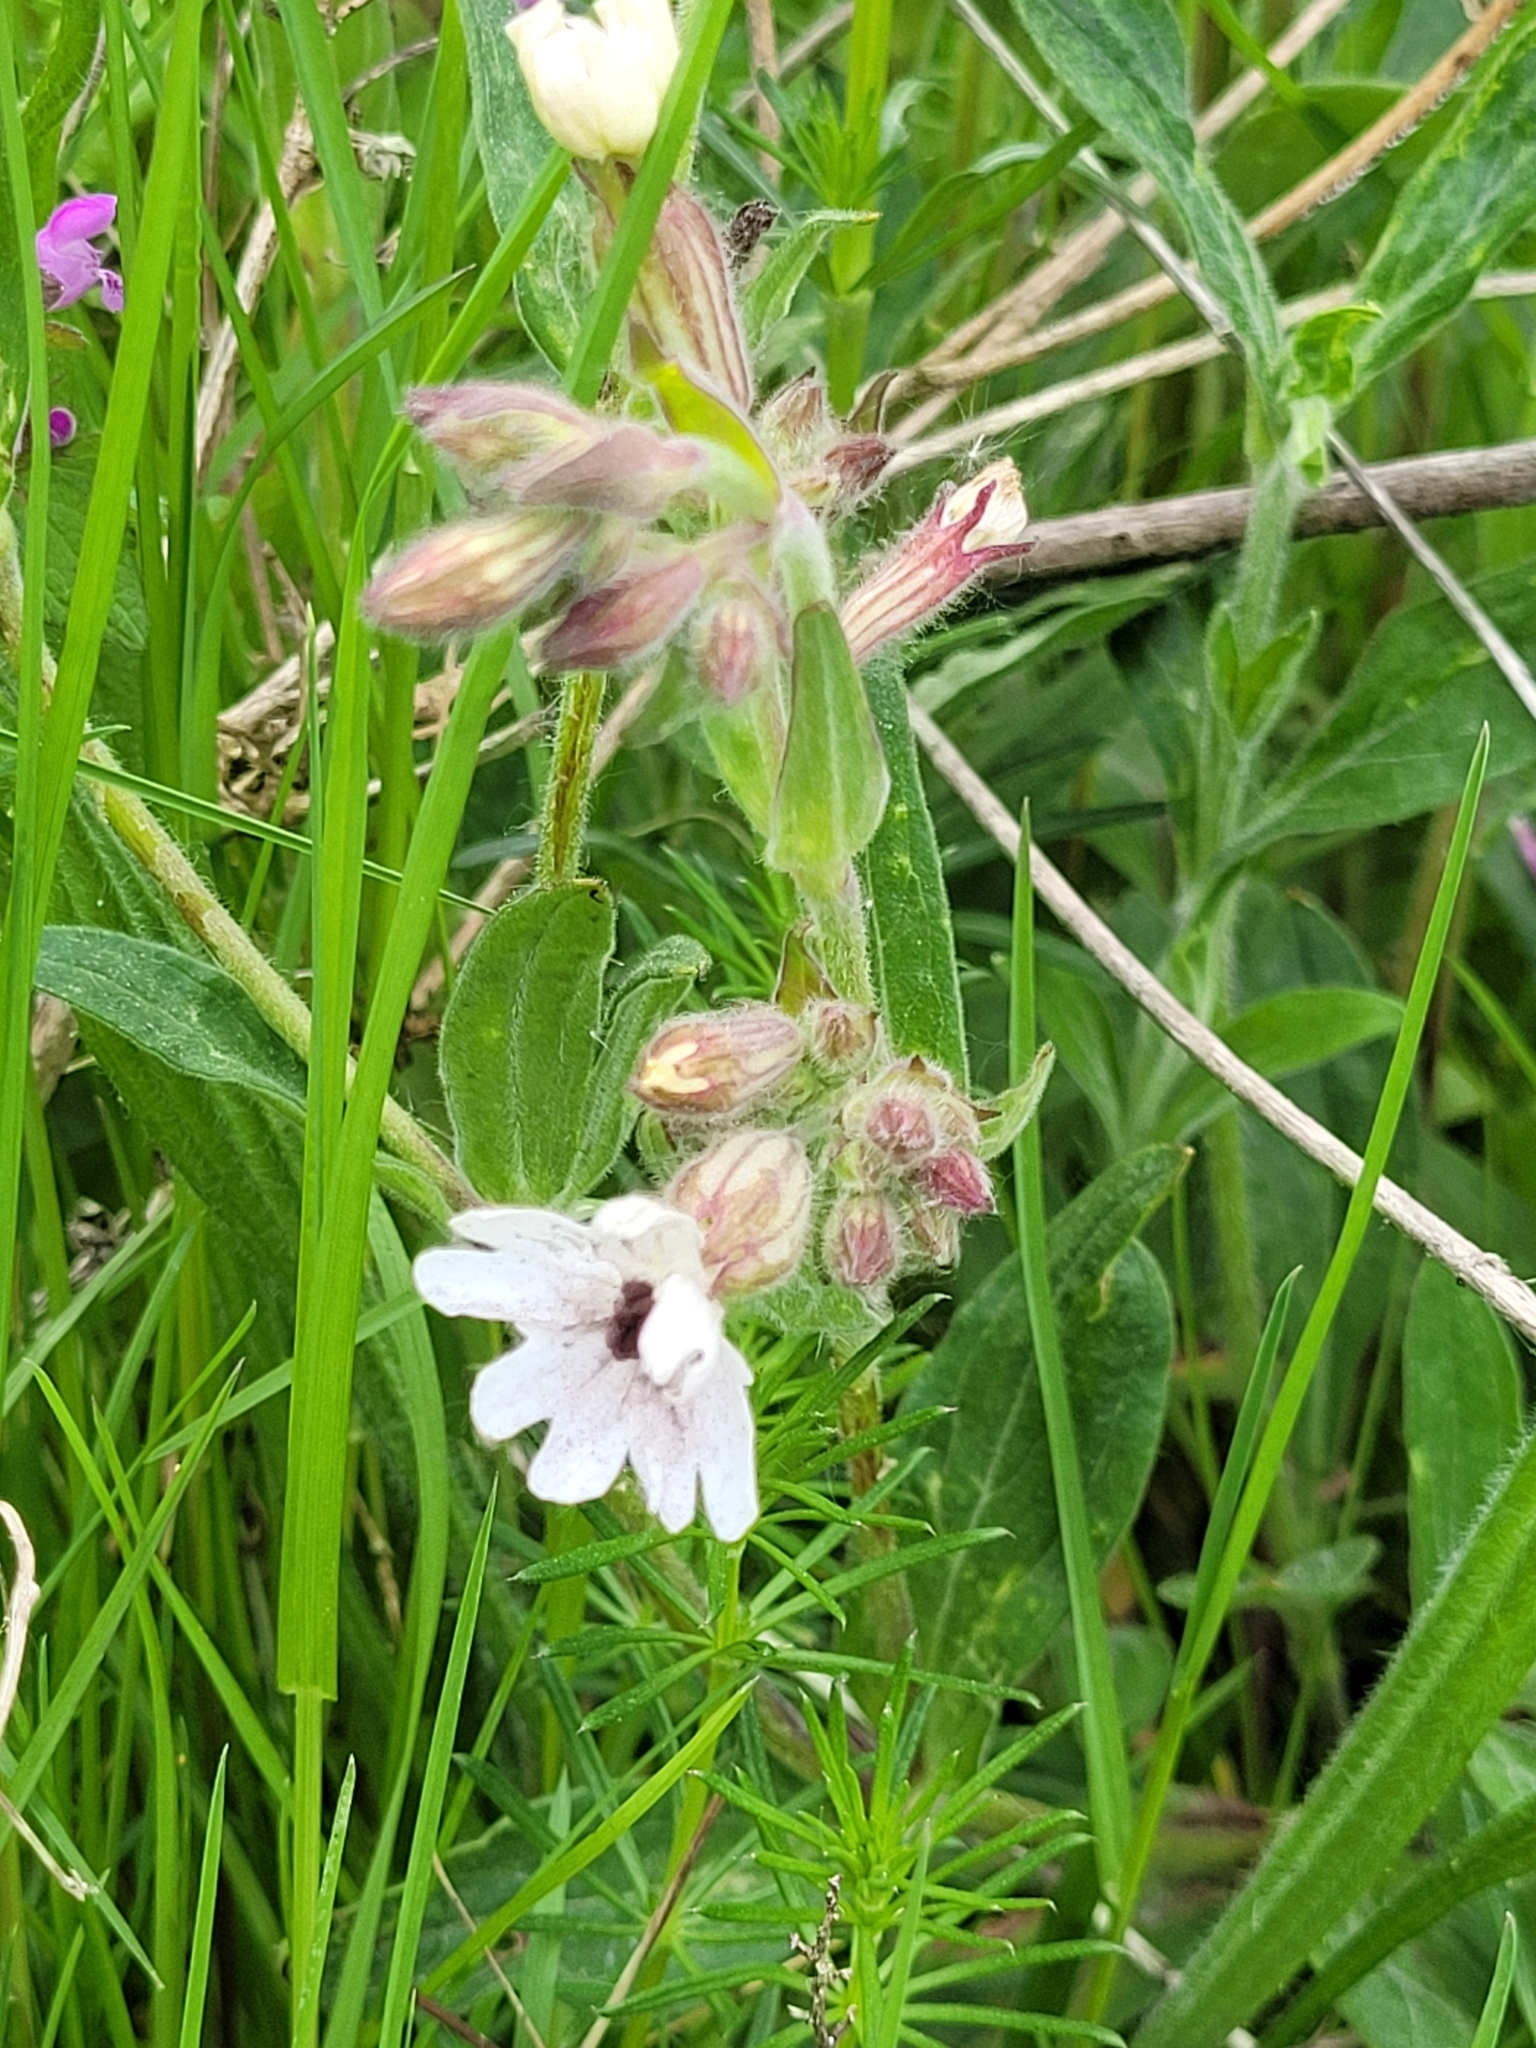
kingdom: Plantae
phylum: Tracheophyta
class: Magnoliopsida
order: Caryophyllales
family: Caryophyllaceae
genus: Silene
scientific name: Silene latifolia
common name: White campion
